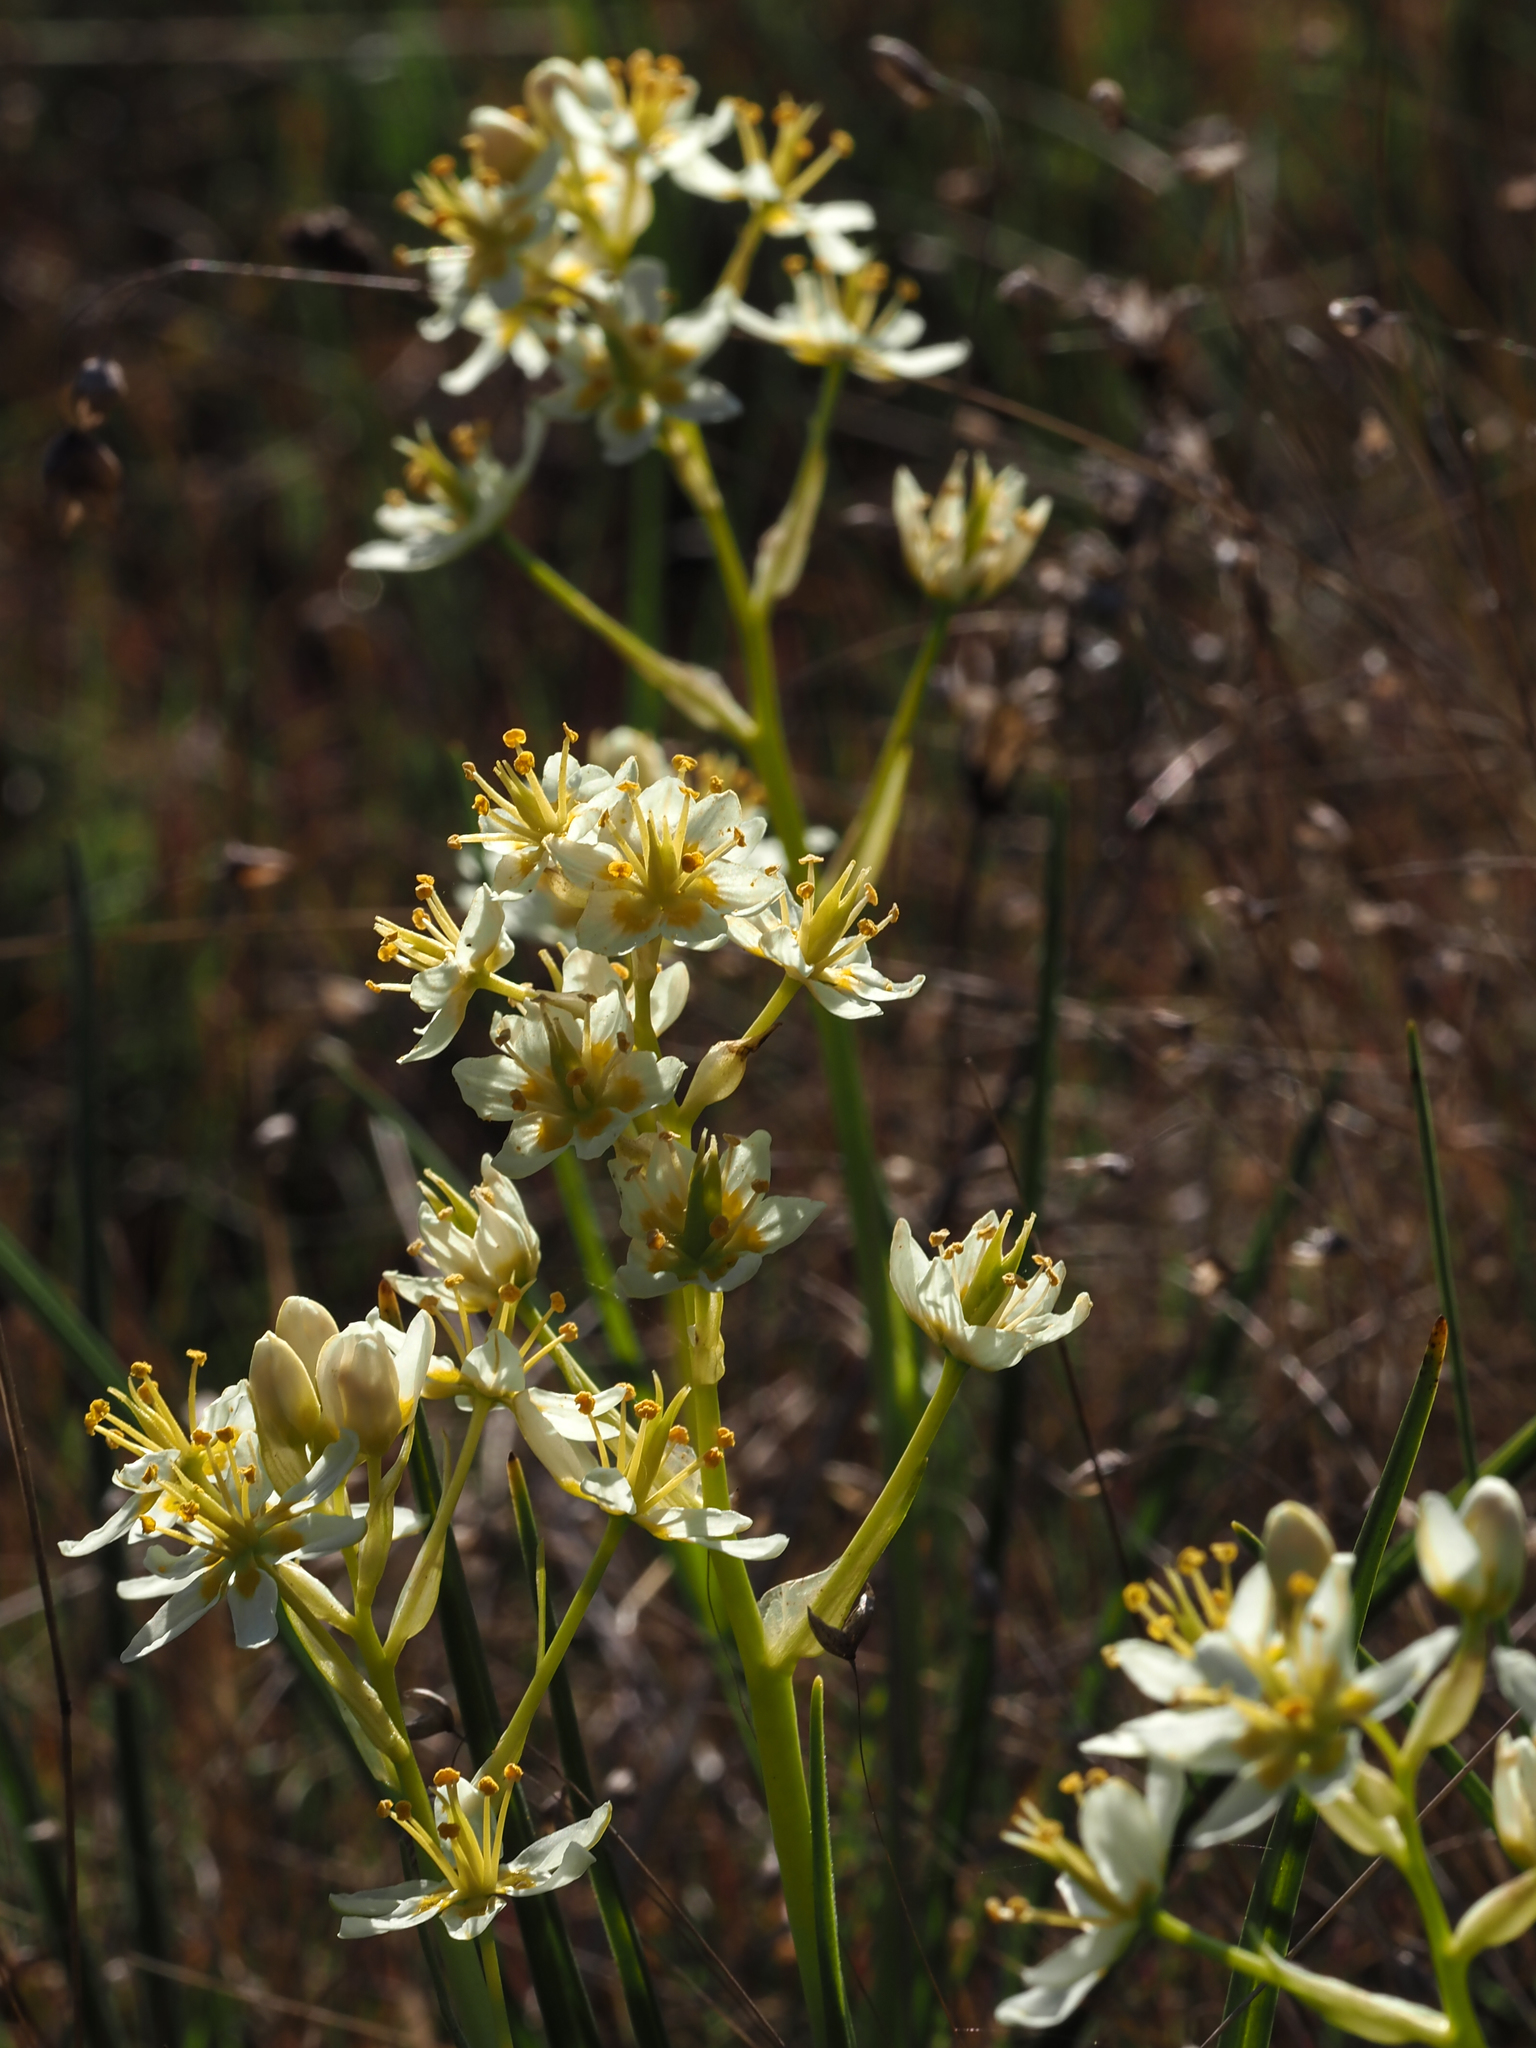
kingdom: Plantae
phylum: Tracheophyta
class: Liliopsida
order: Liliales
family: Melanthiaceae
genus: Toxicoscordion
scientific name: Toxicoscordion fremontii
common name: Fremont's death camas
